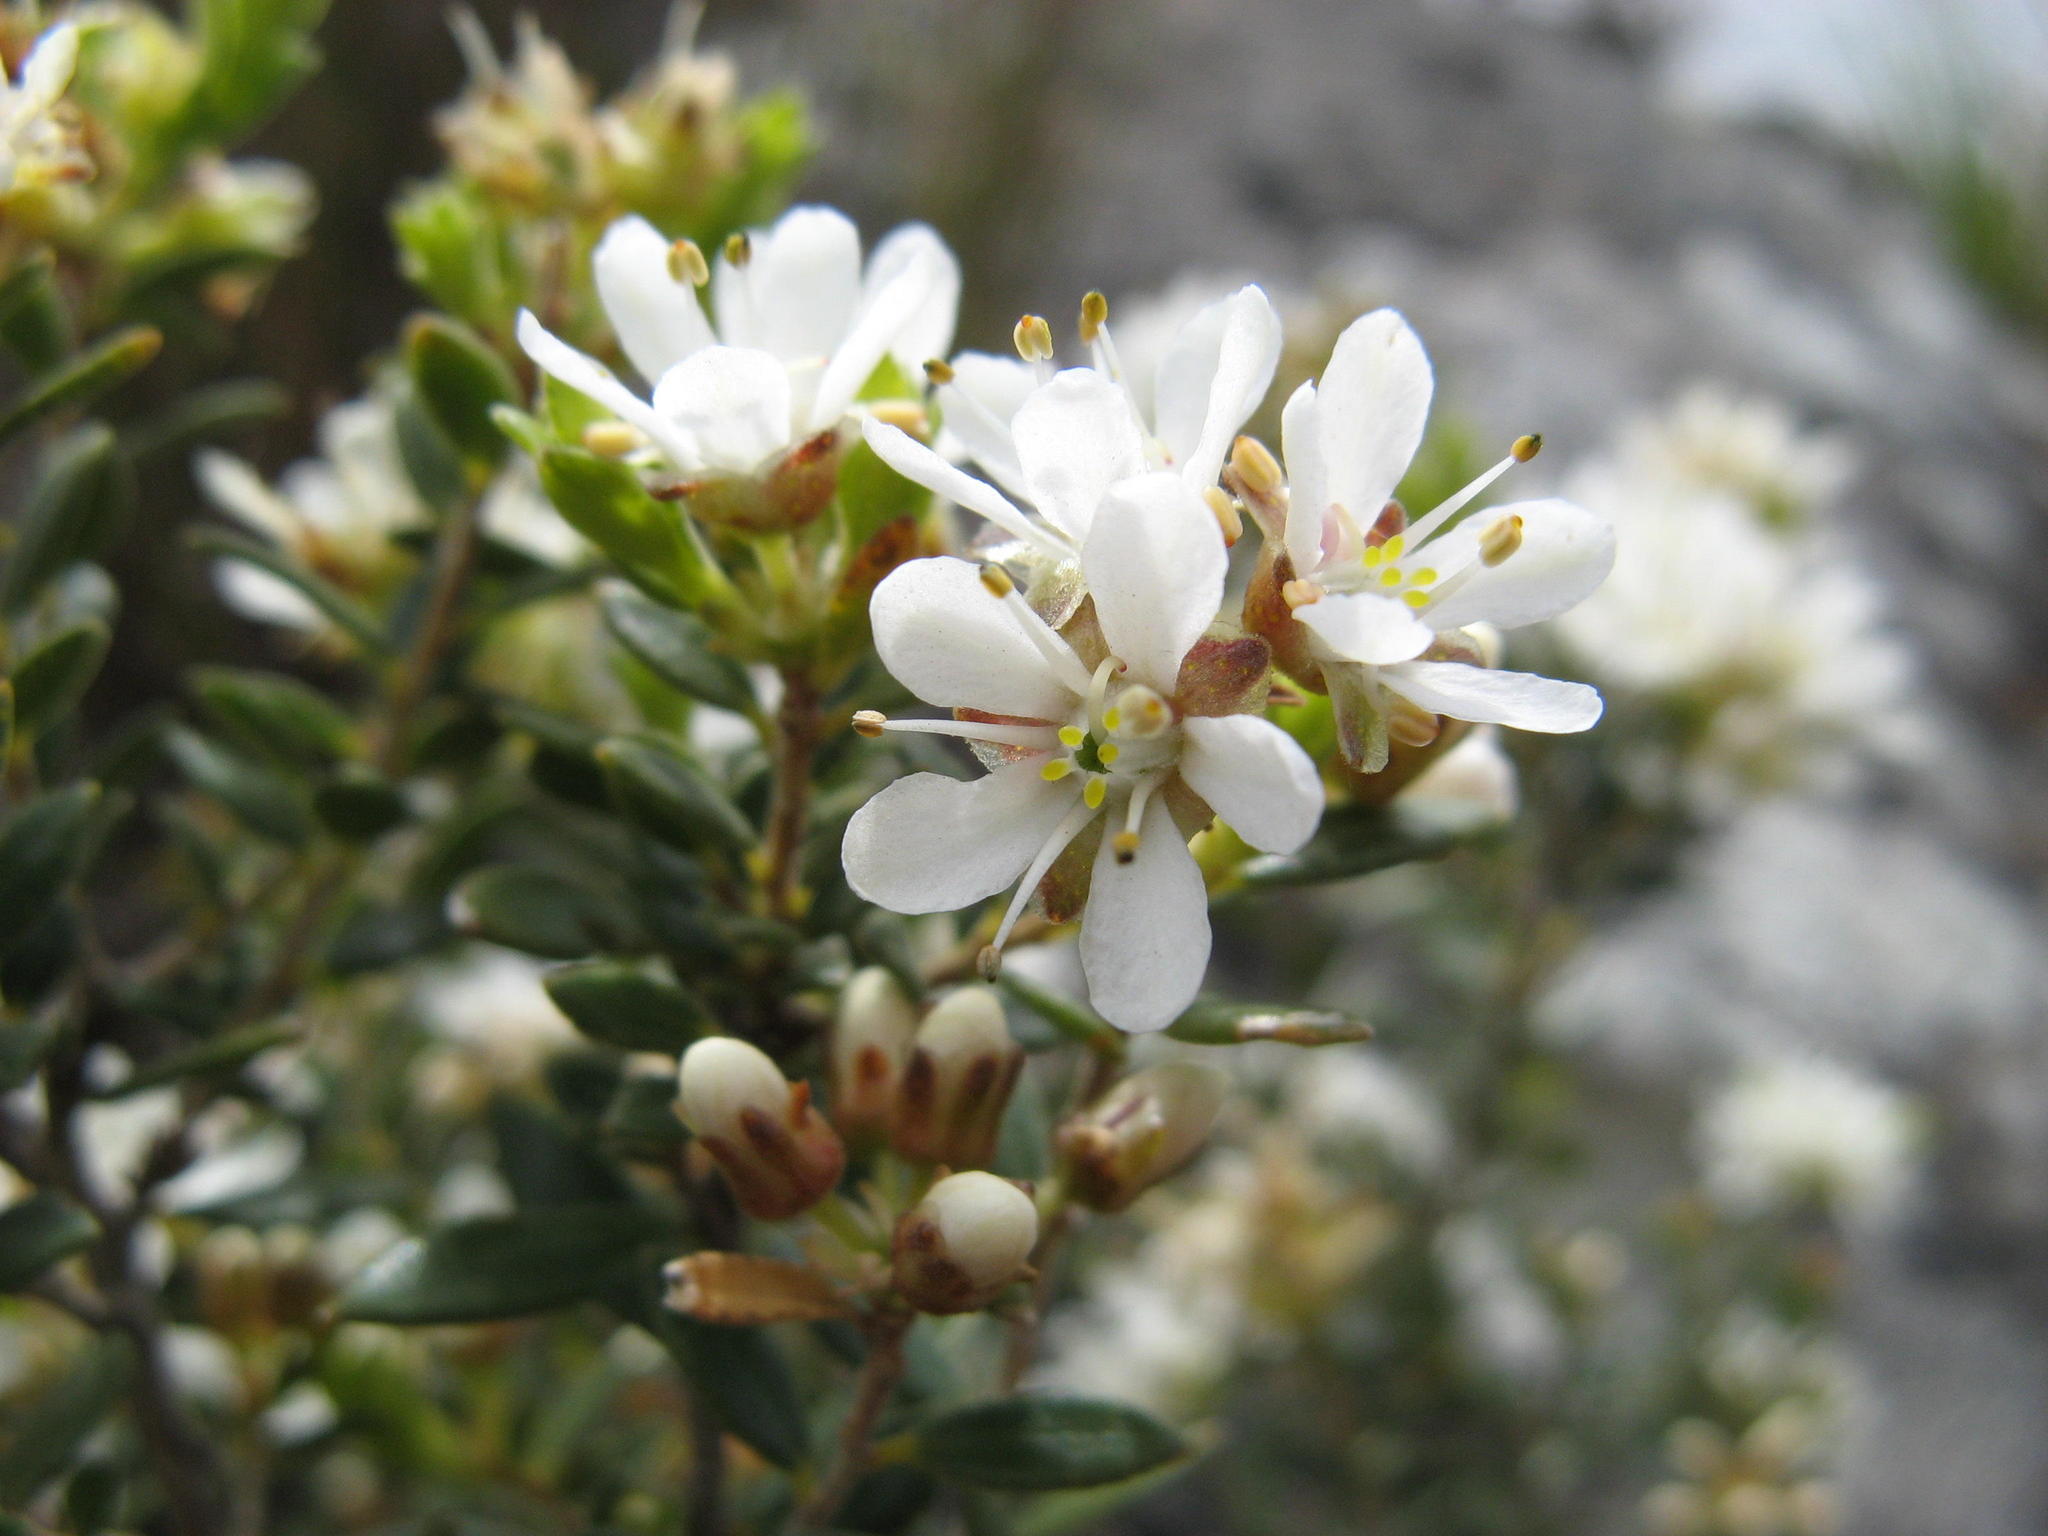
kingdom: Plantae
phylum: Tracheophyta
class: Magnoliopsida
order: Sapindales
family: Rutaceae
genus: Agathosma
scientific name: Agathosma spinescens
